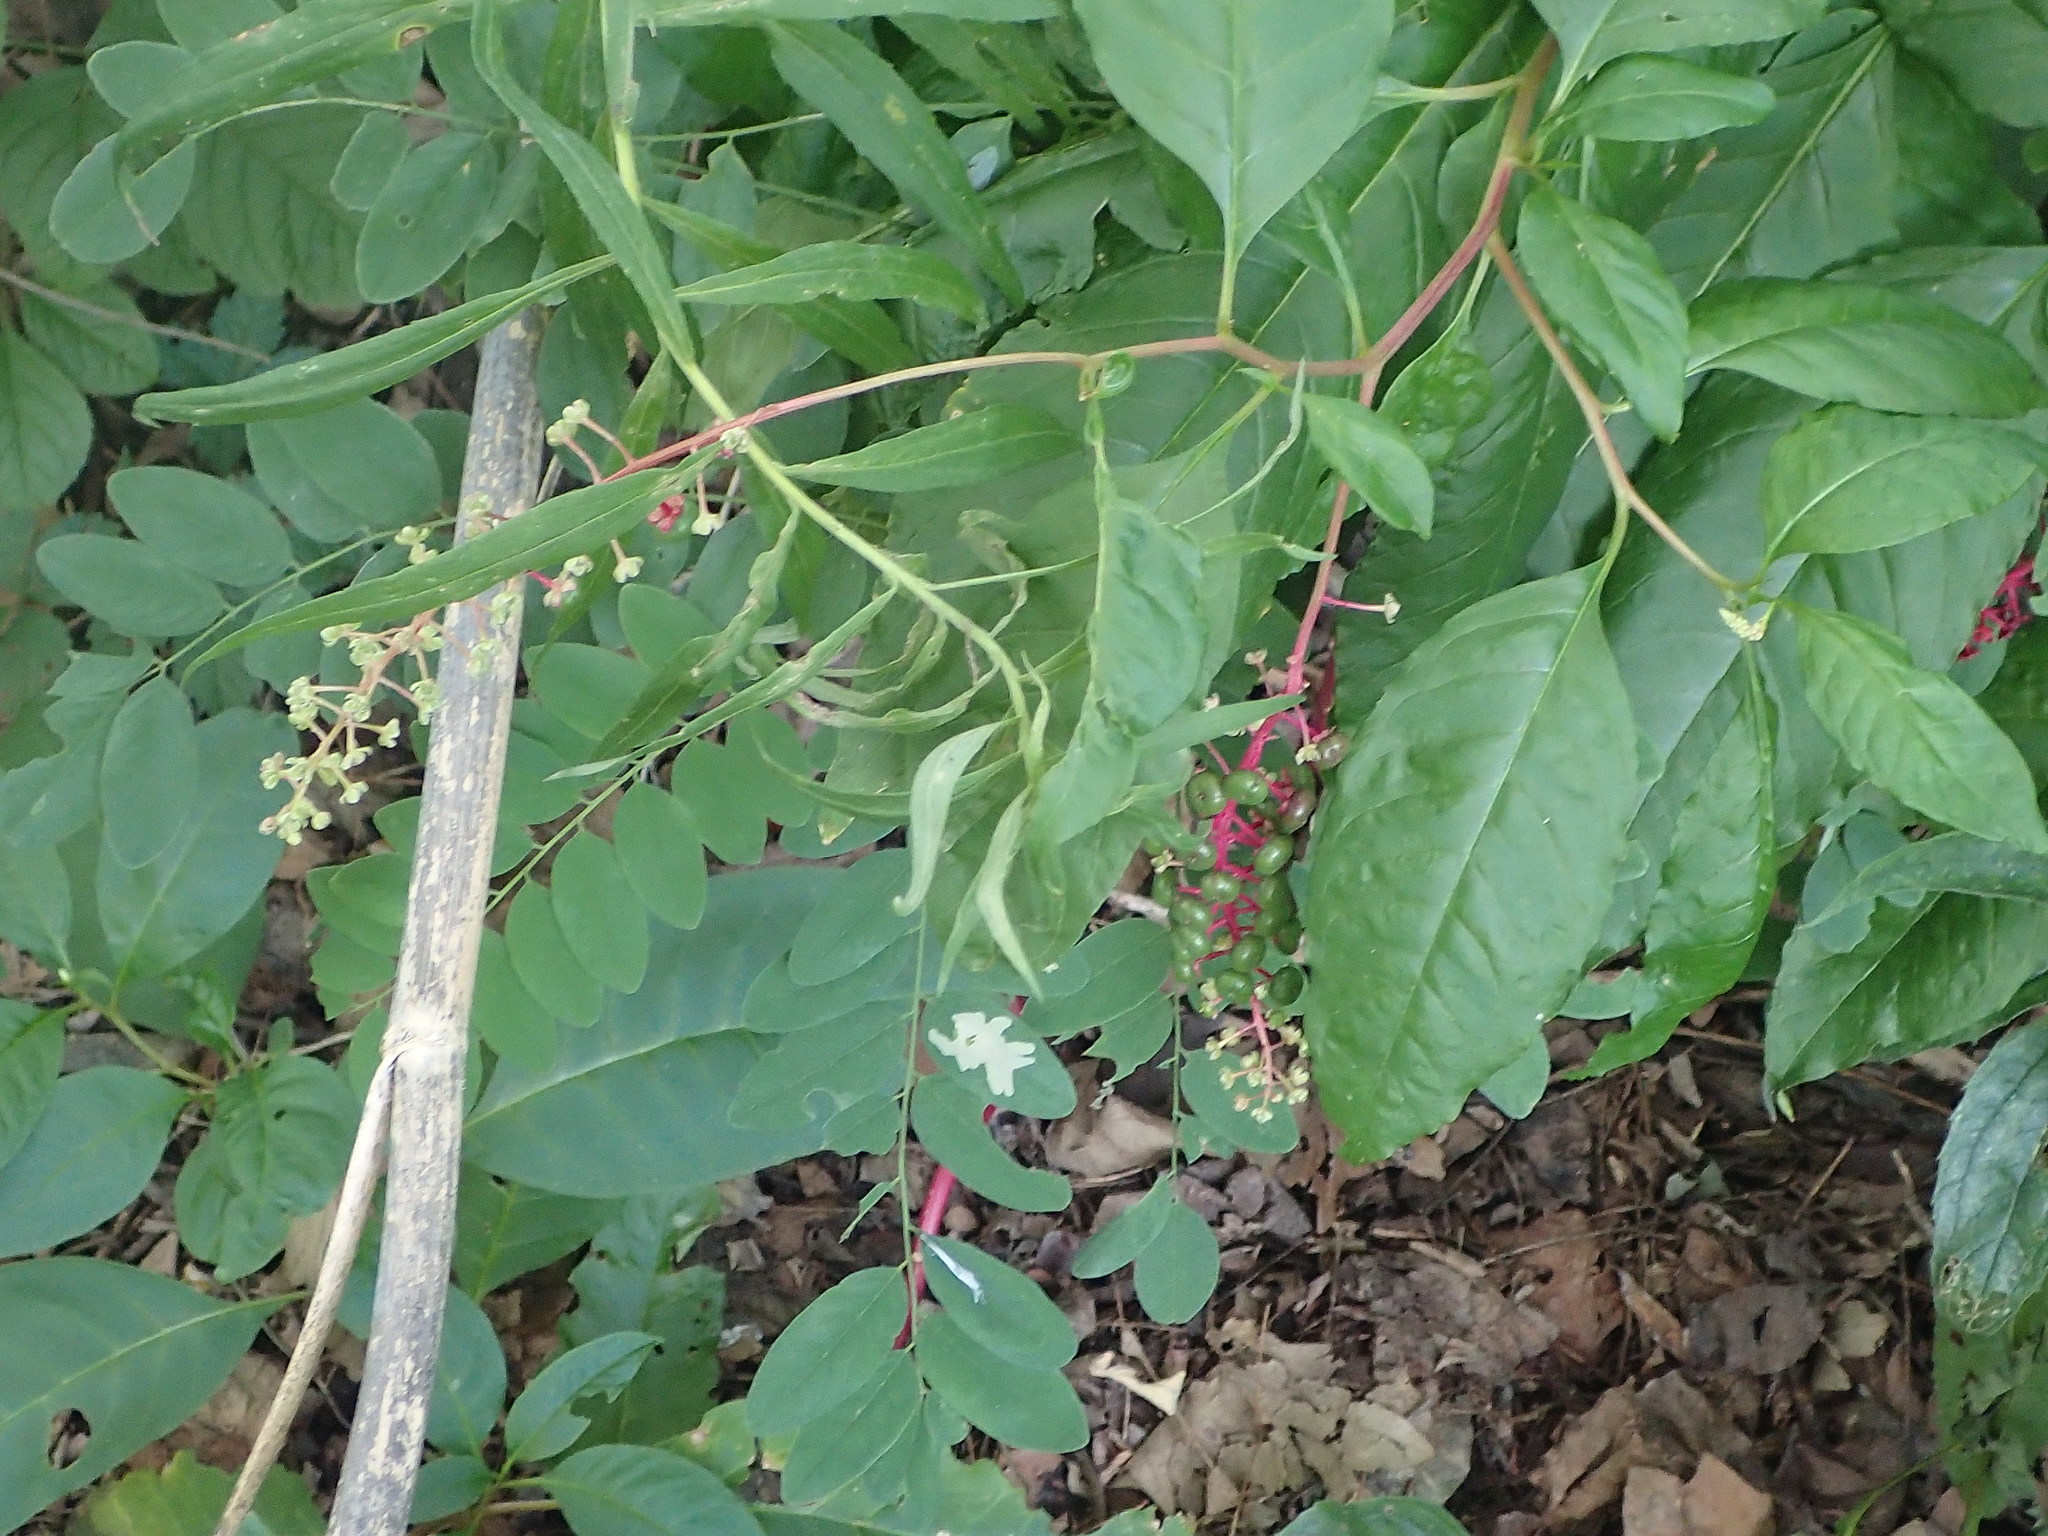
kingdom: Plantae
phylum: Tracheophyta
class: Magnoliopsida
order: Caryophyllales
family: Phytolaccaceae
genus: Phytolacca
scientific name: Phytolacca americana
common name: American pokeweed
